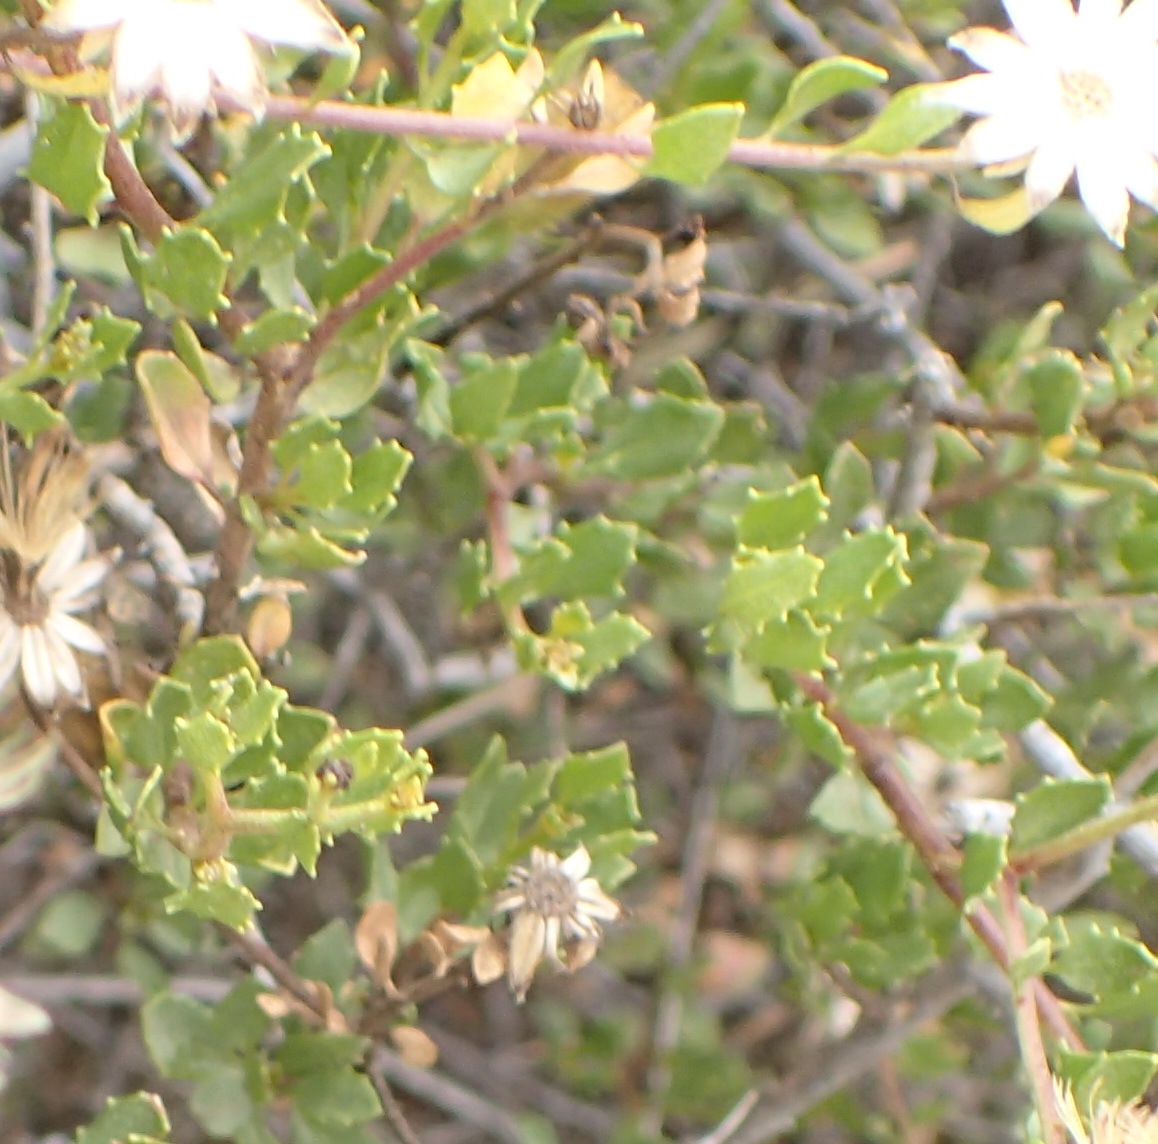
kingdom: Plantae
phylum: Tracheophyta
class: Magnoliopsida
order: Asterales
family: Asteraceae
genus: Pegolettia
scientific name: Pegolettia baccaridifolia
